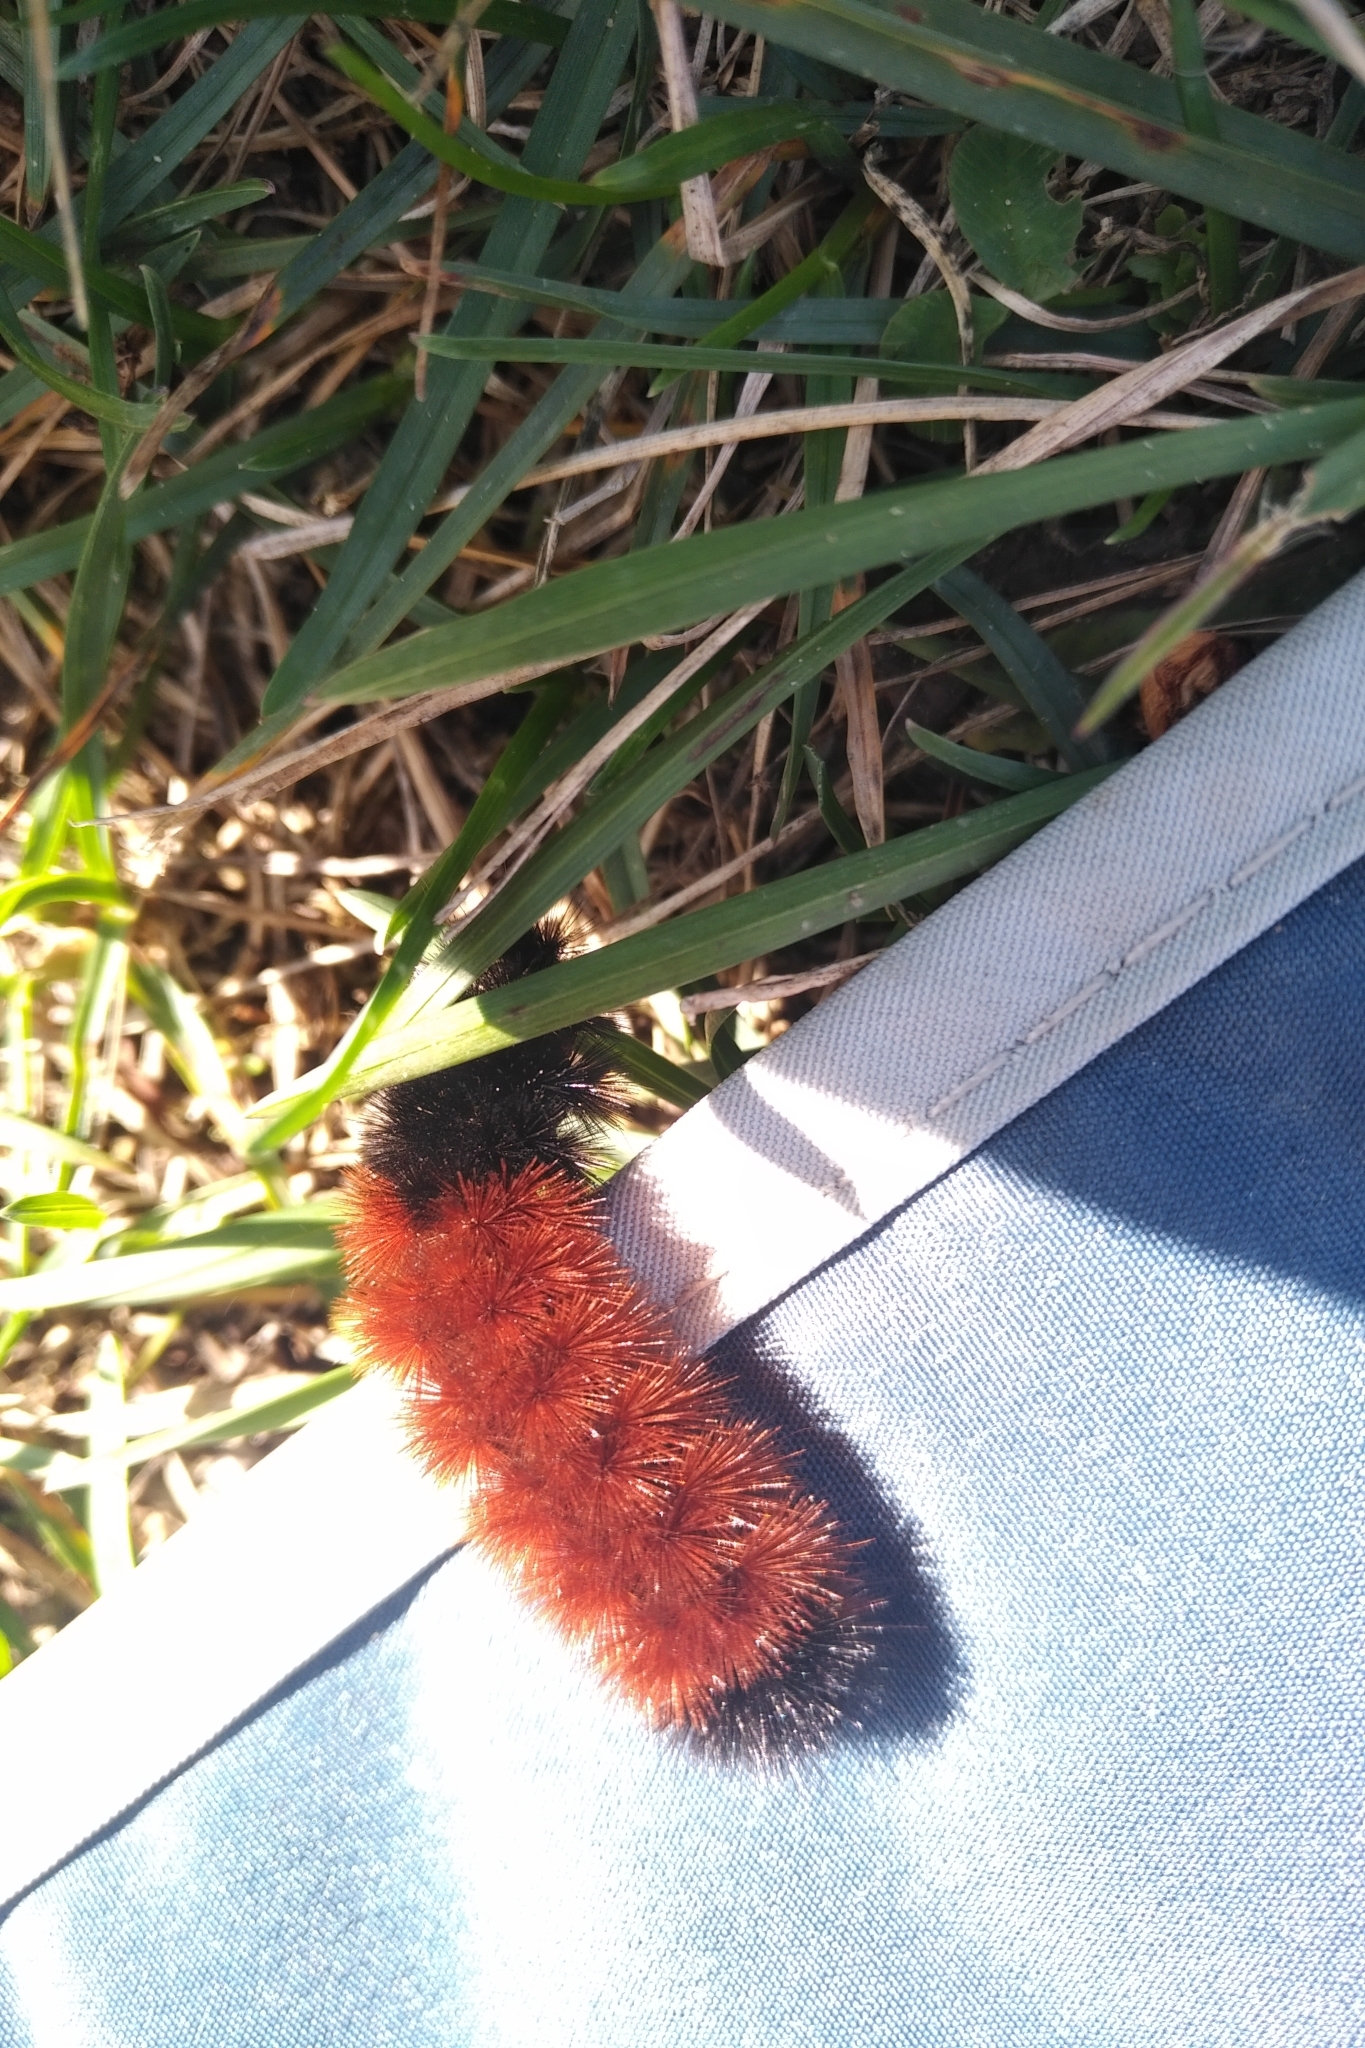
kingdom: Animalia
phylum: Arthropoda
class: Insecta
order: Lepidoptera
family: Erebidae
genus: Pyrrharctia
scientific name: Pyrrharctia isabella
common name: Isabella tiger moth
